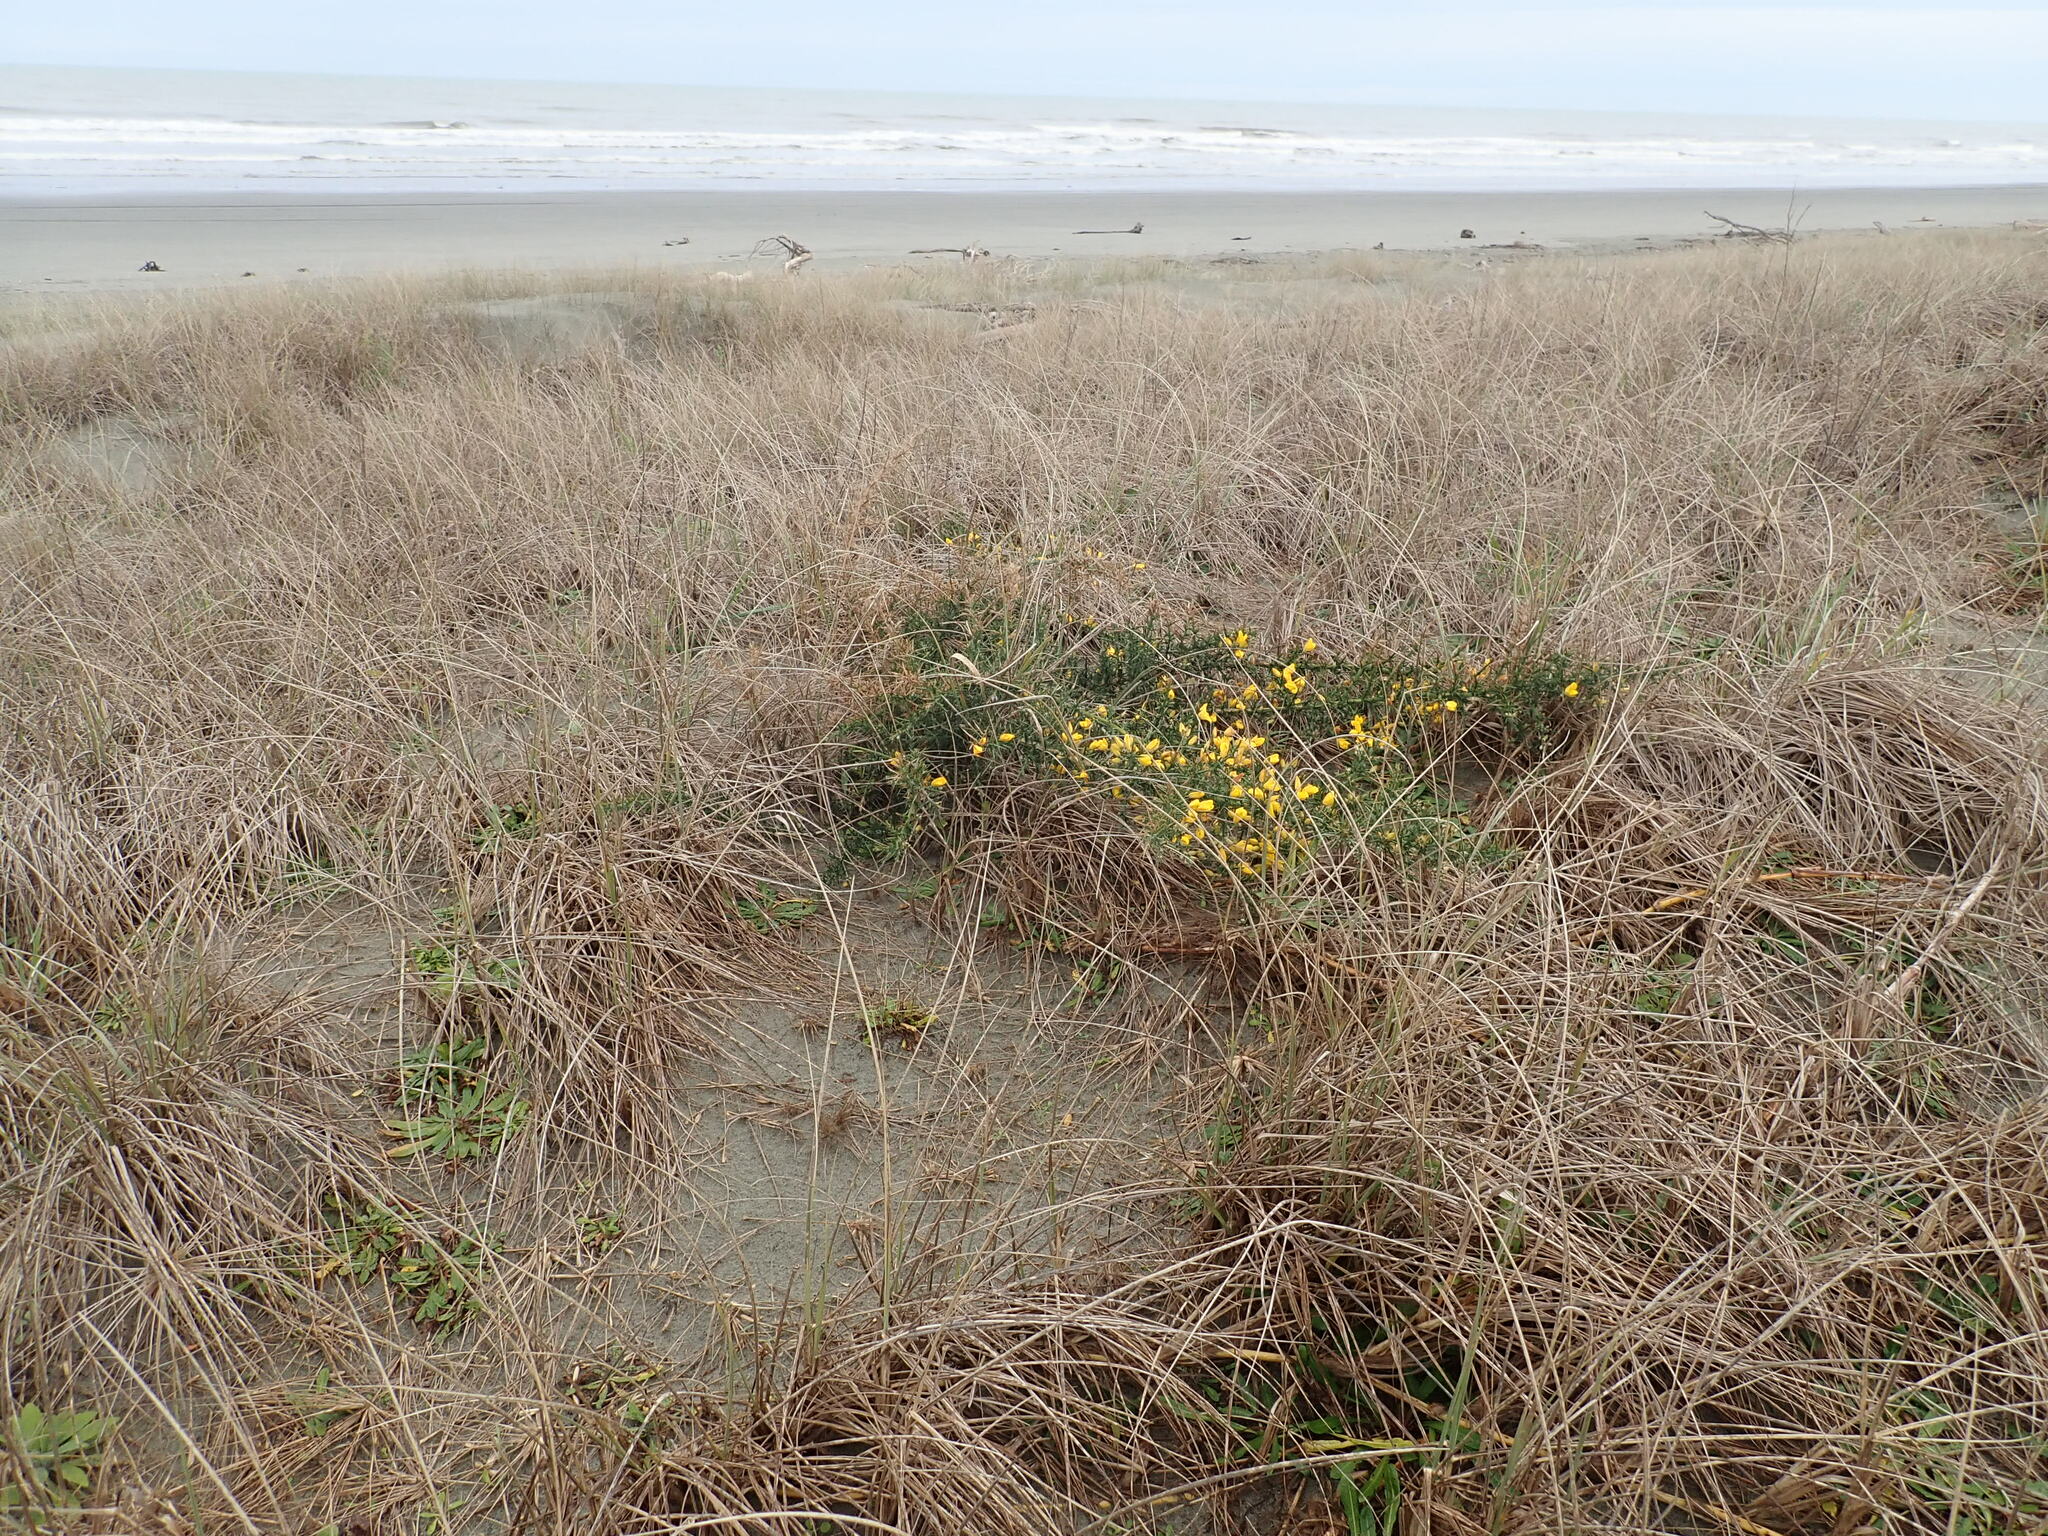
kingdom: Plantae
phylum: Tracheophyta
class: Magnoliopsida
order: Fabales
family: Fabaceae
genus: Ulex
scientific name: Ulex europaeus
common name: Common gorse
